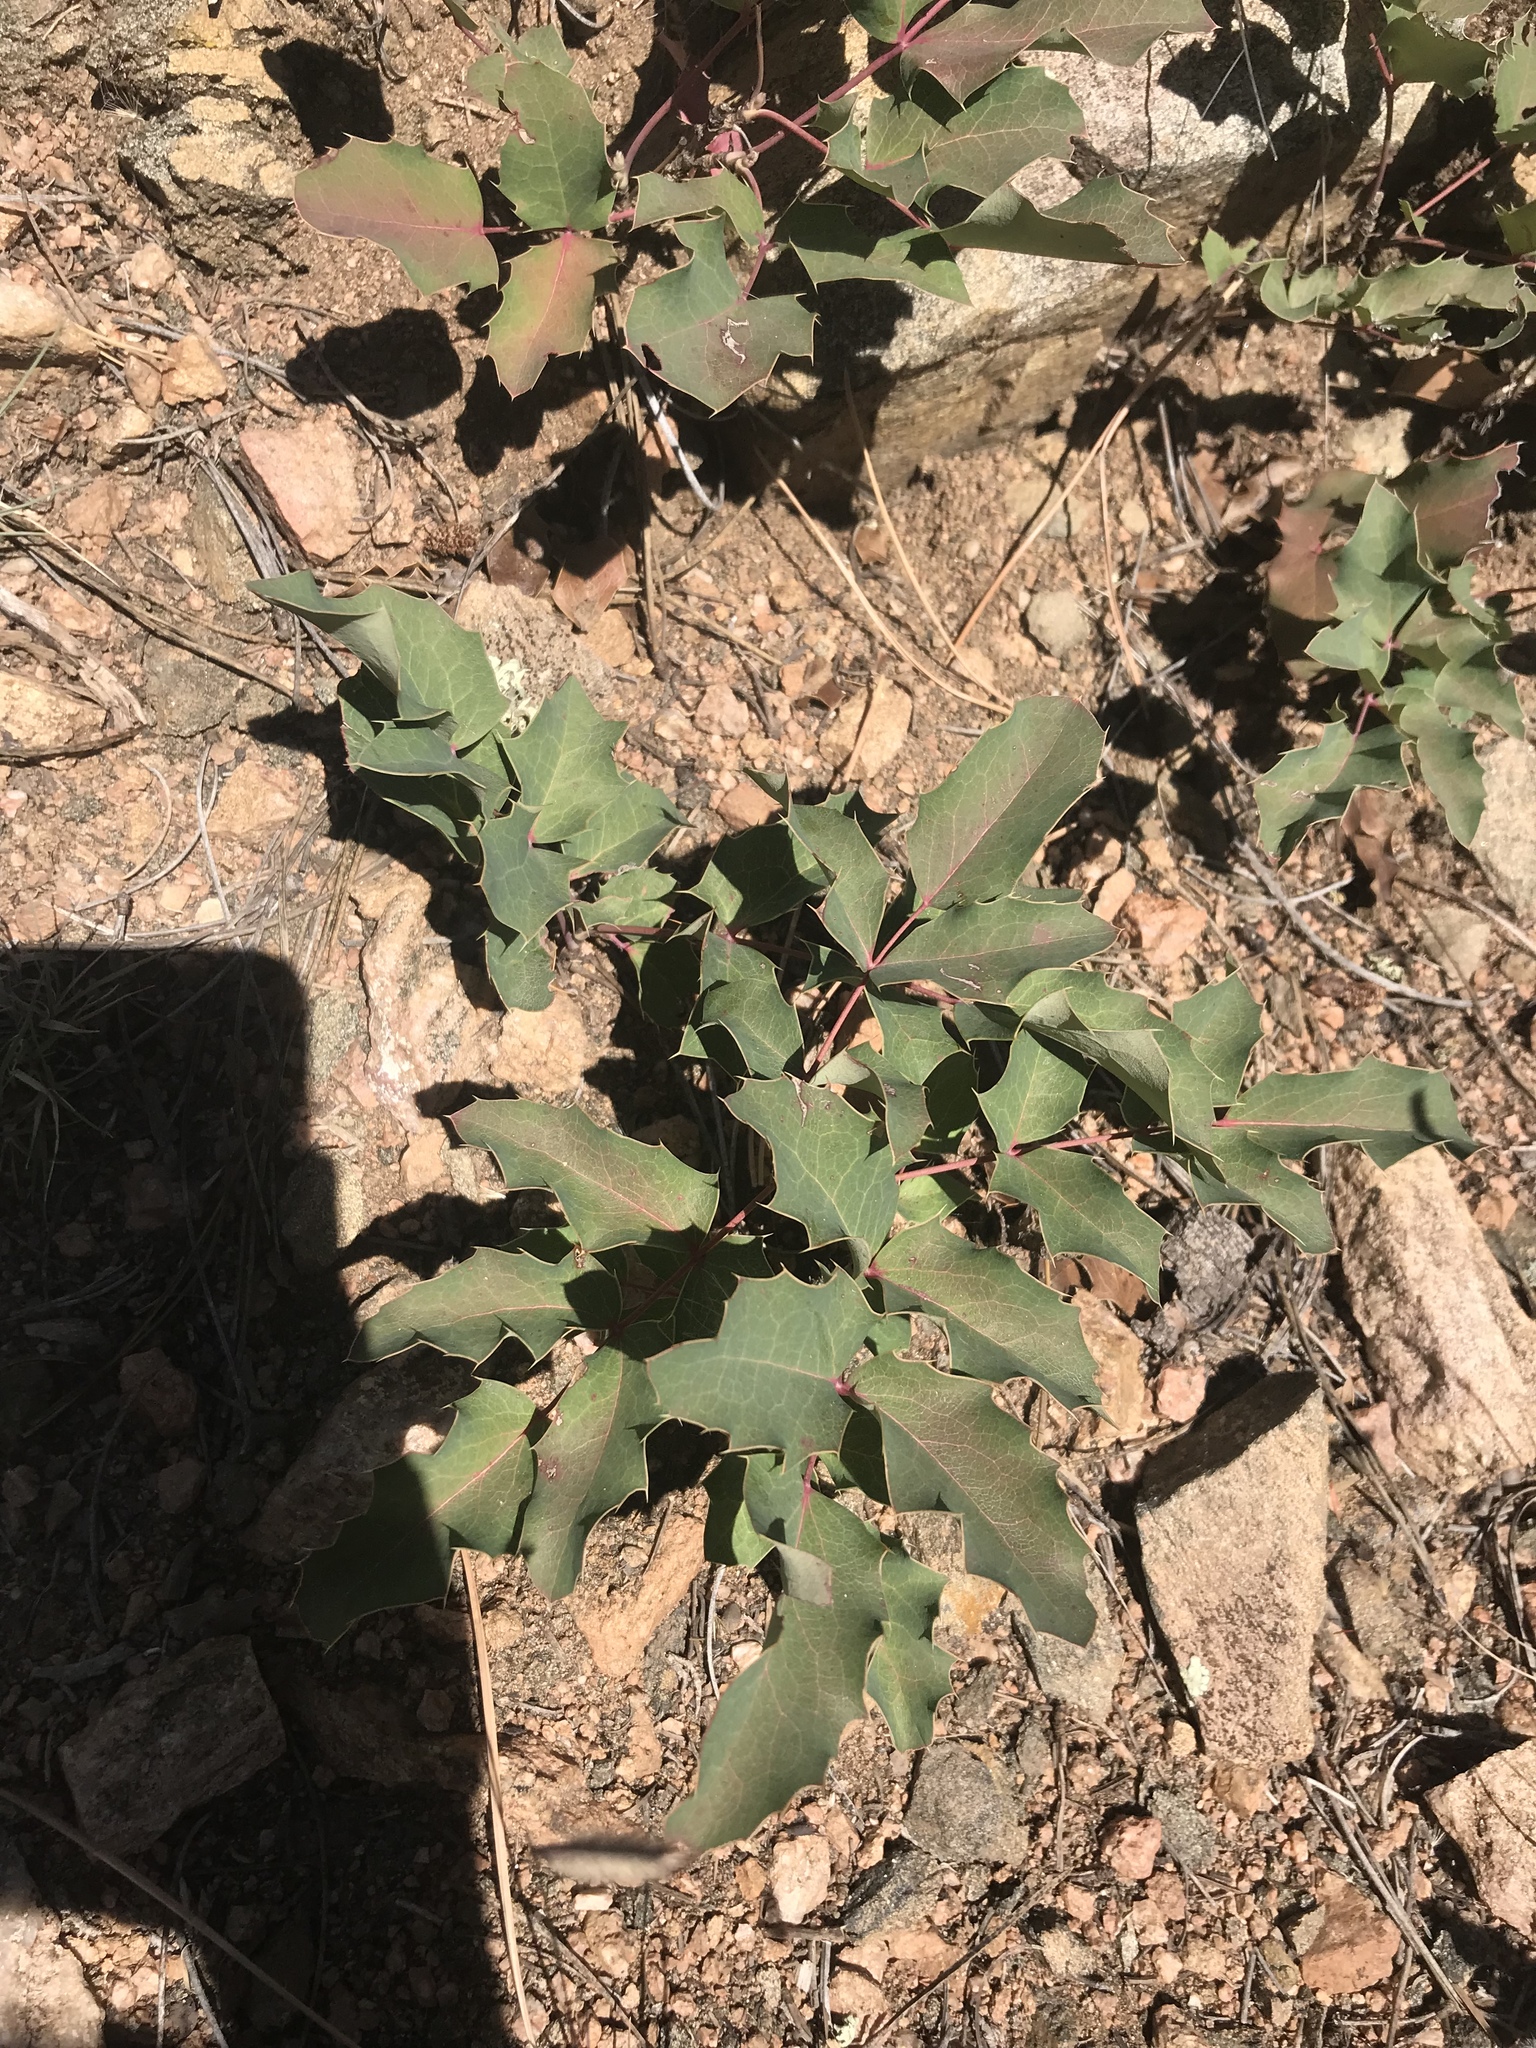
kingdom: Plantae
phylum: Tracheophyta
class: Magnoliopsida
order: Ranunculales
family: Berberidaceae
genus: Mahonia
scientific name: Mahonia repens
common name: Creeping oregon-grape
